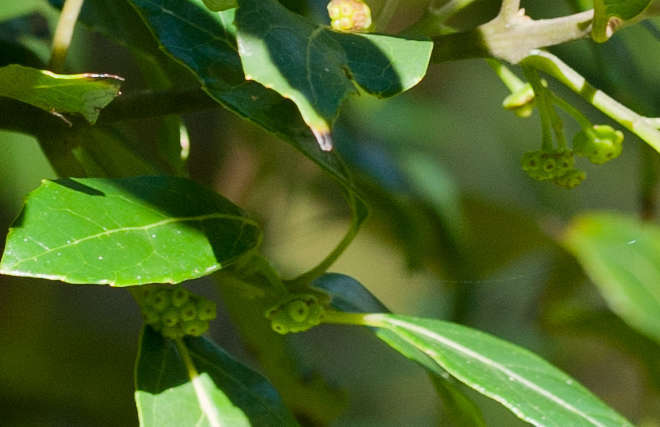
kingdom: Plantae
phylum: Tracheophyta
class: Magnoliopsida
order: Laurales
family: Monimiaceae
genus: Hedycarya
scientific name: Hedycarya angustifolia
